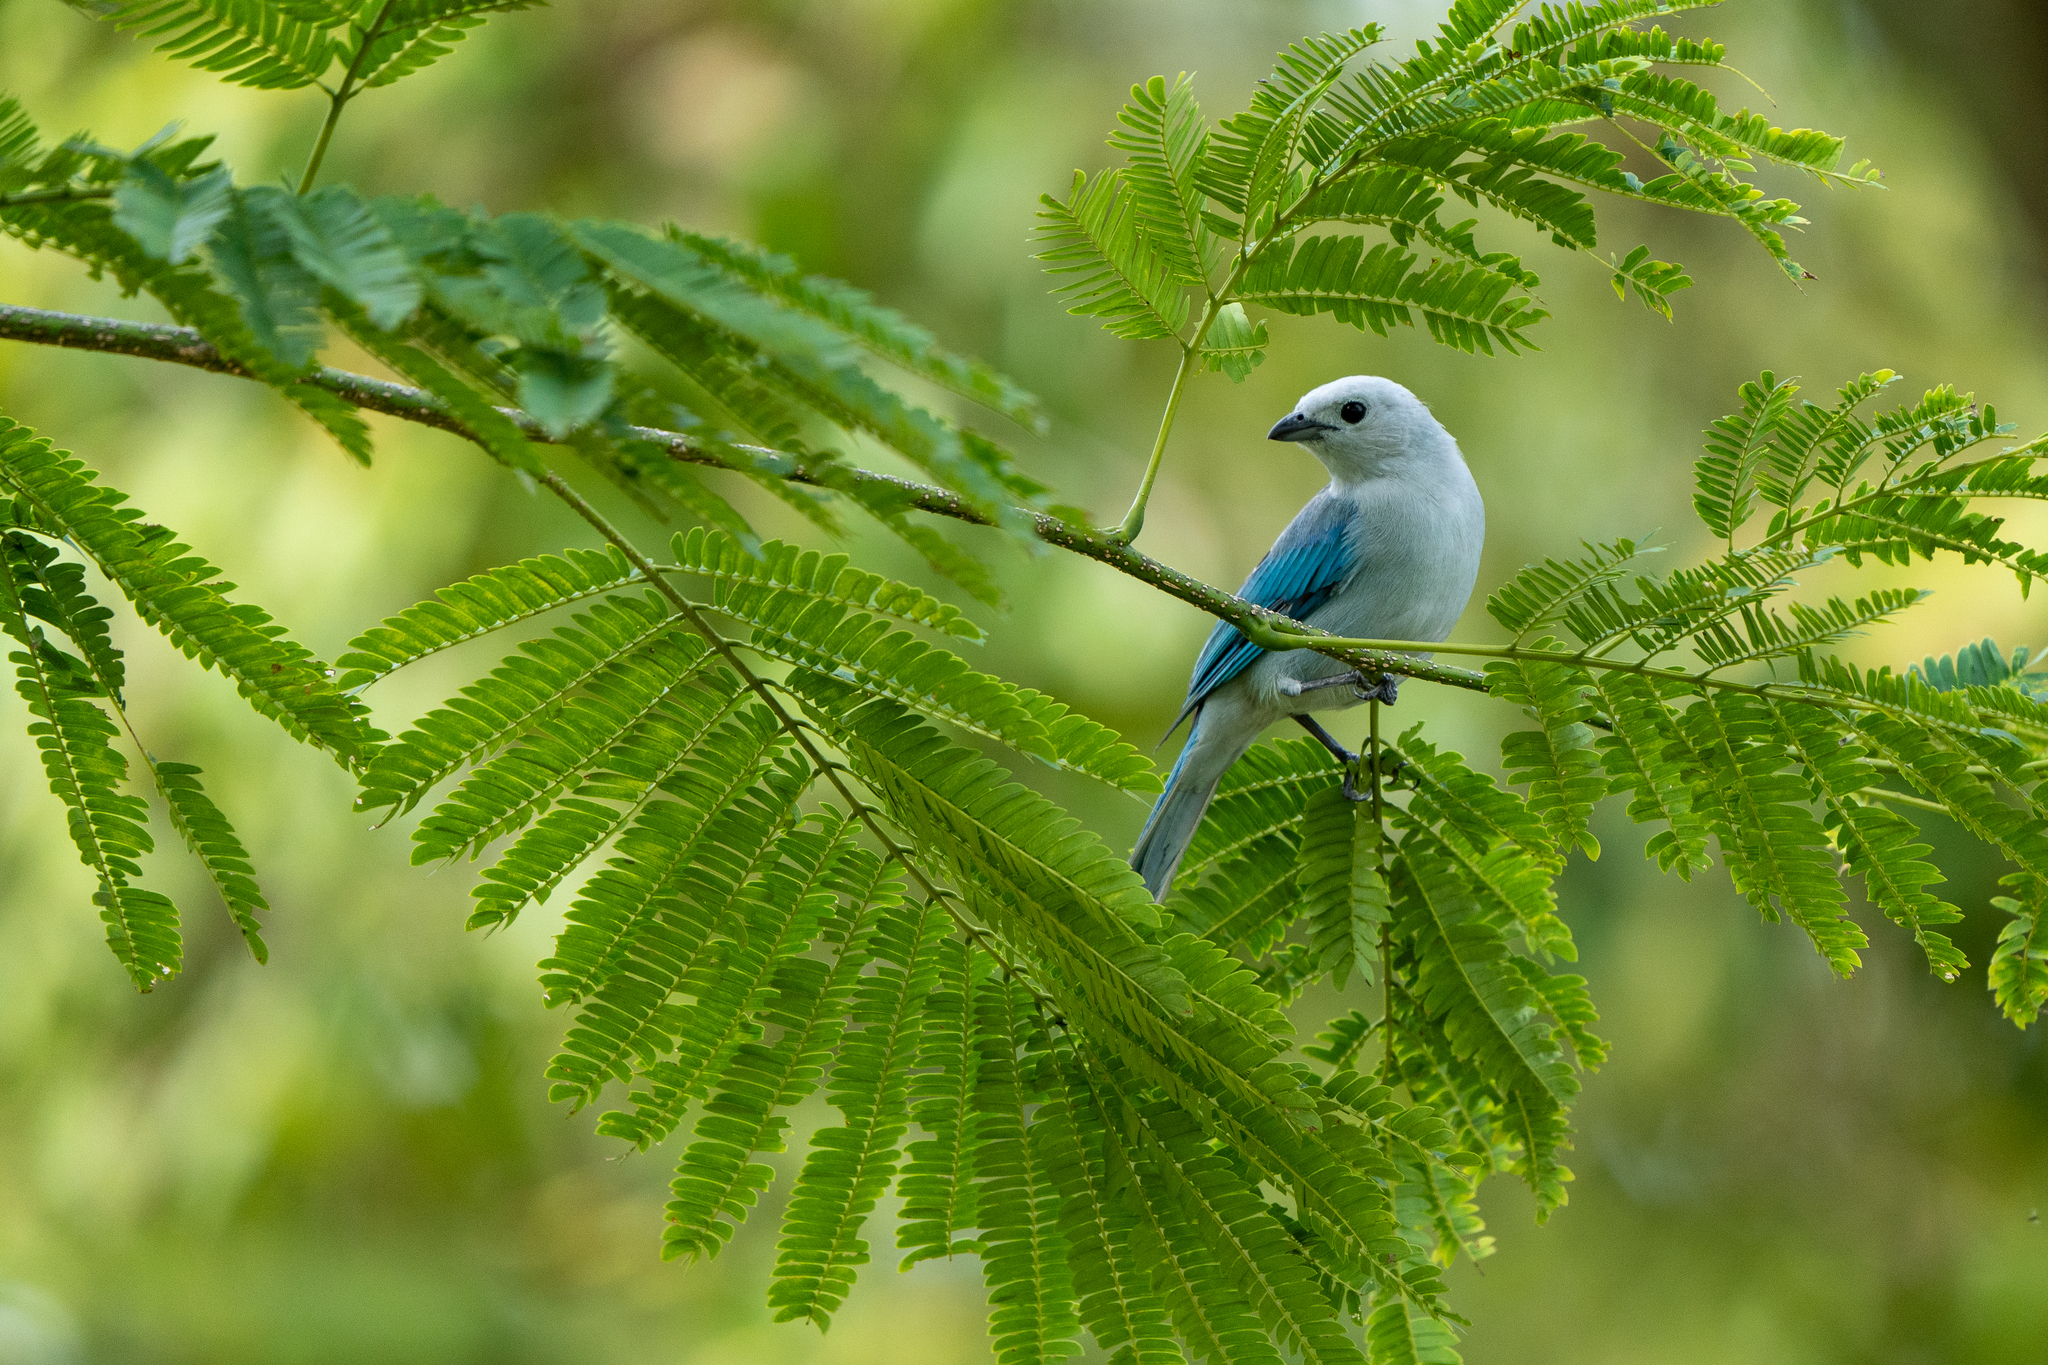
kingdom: Animalia
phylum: Chordata
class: Aves
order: Passeriformes
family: Thraupidae
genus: Thraupis
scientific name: Thraupis episcopus
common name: Blue-grey tanager
